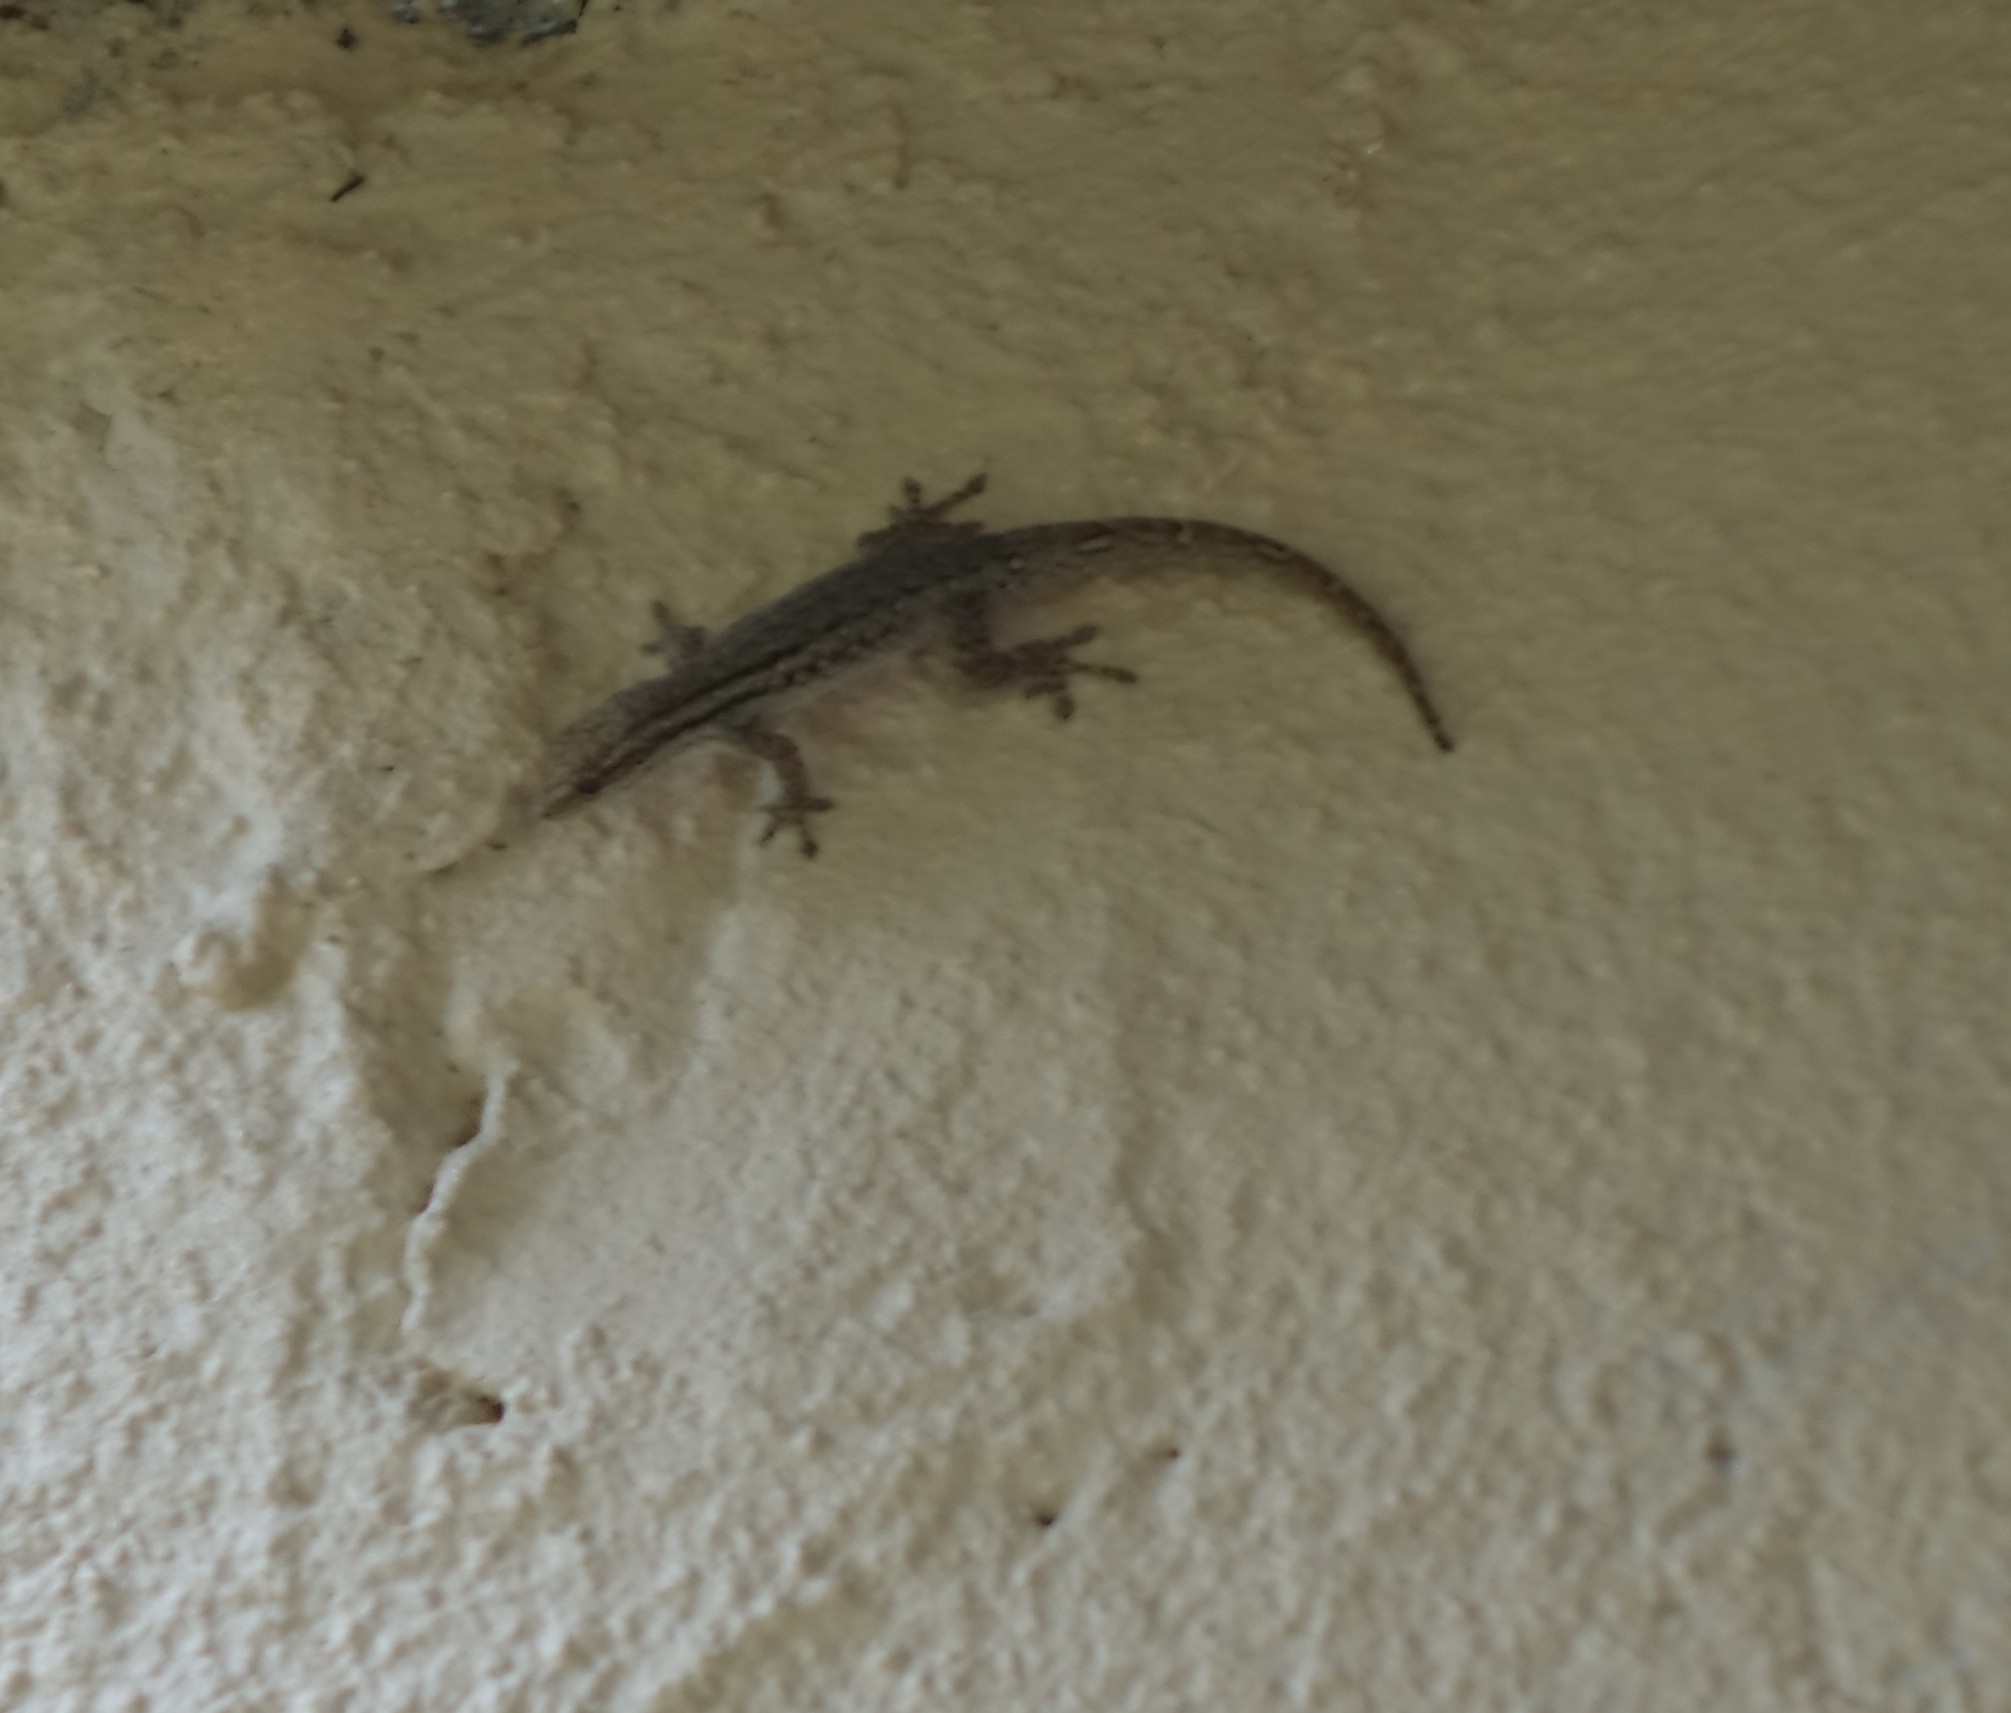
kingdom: Animalia
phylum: Chordata
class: Squamata
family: Gekkonidae
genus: Lygodactylus
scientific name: Lygodactylus capensis
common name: Cape dwarf gecko
